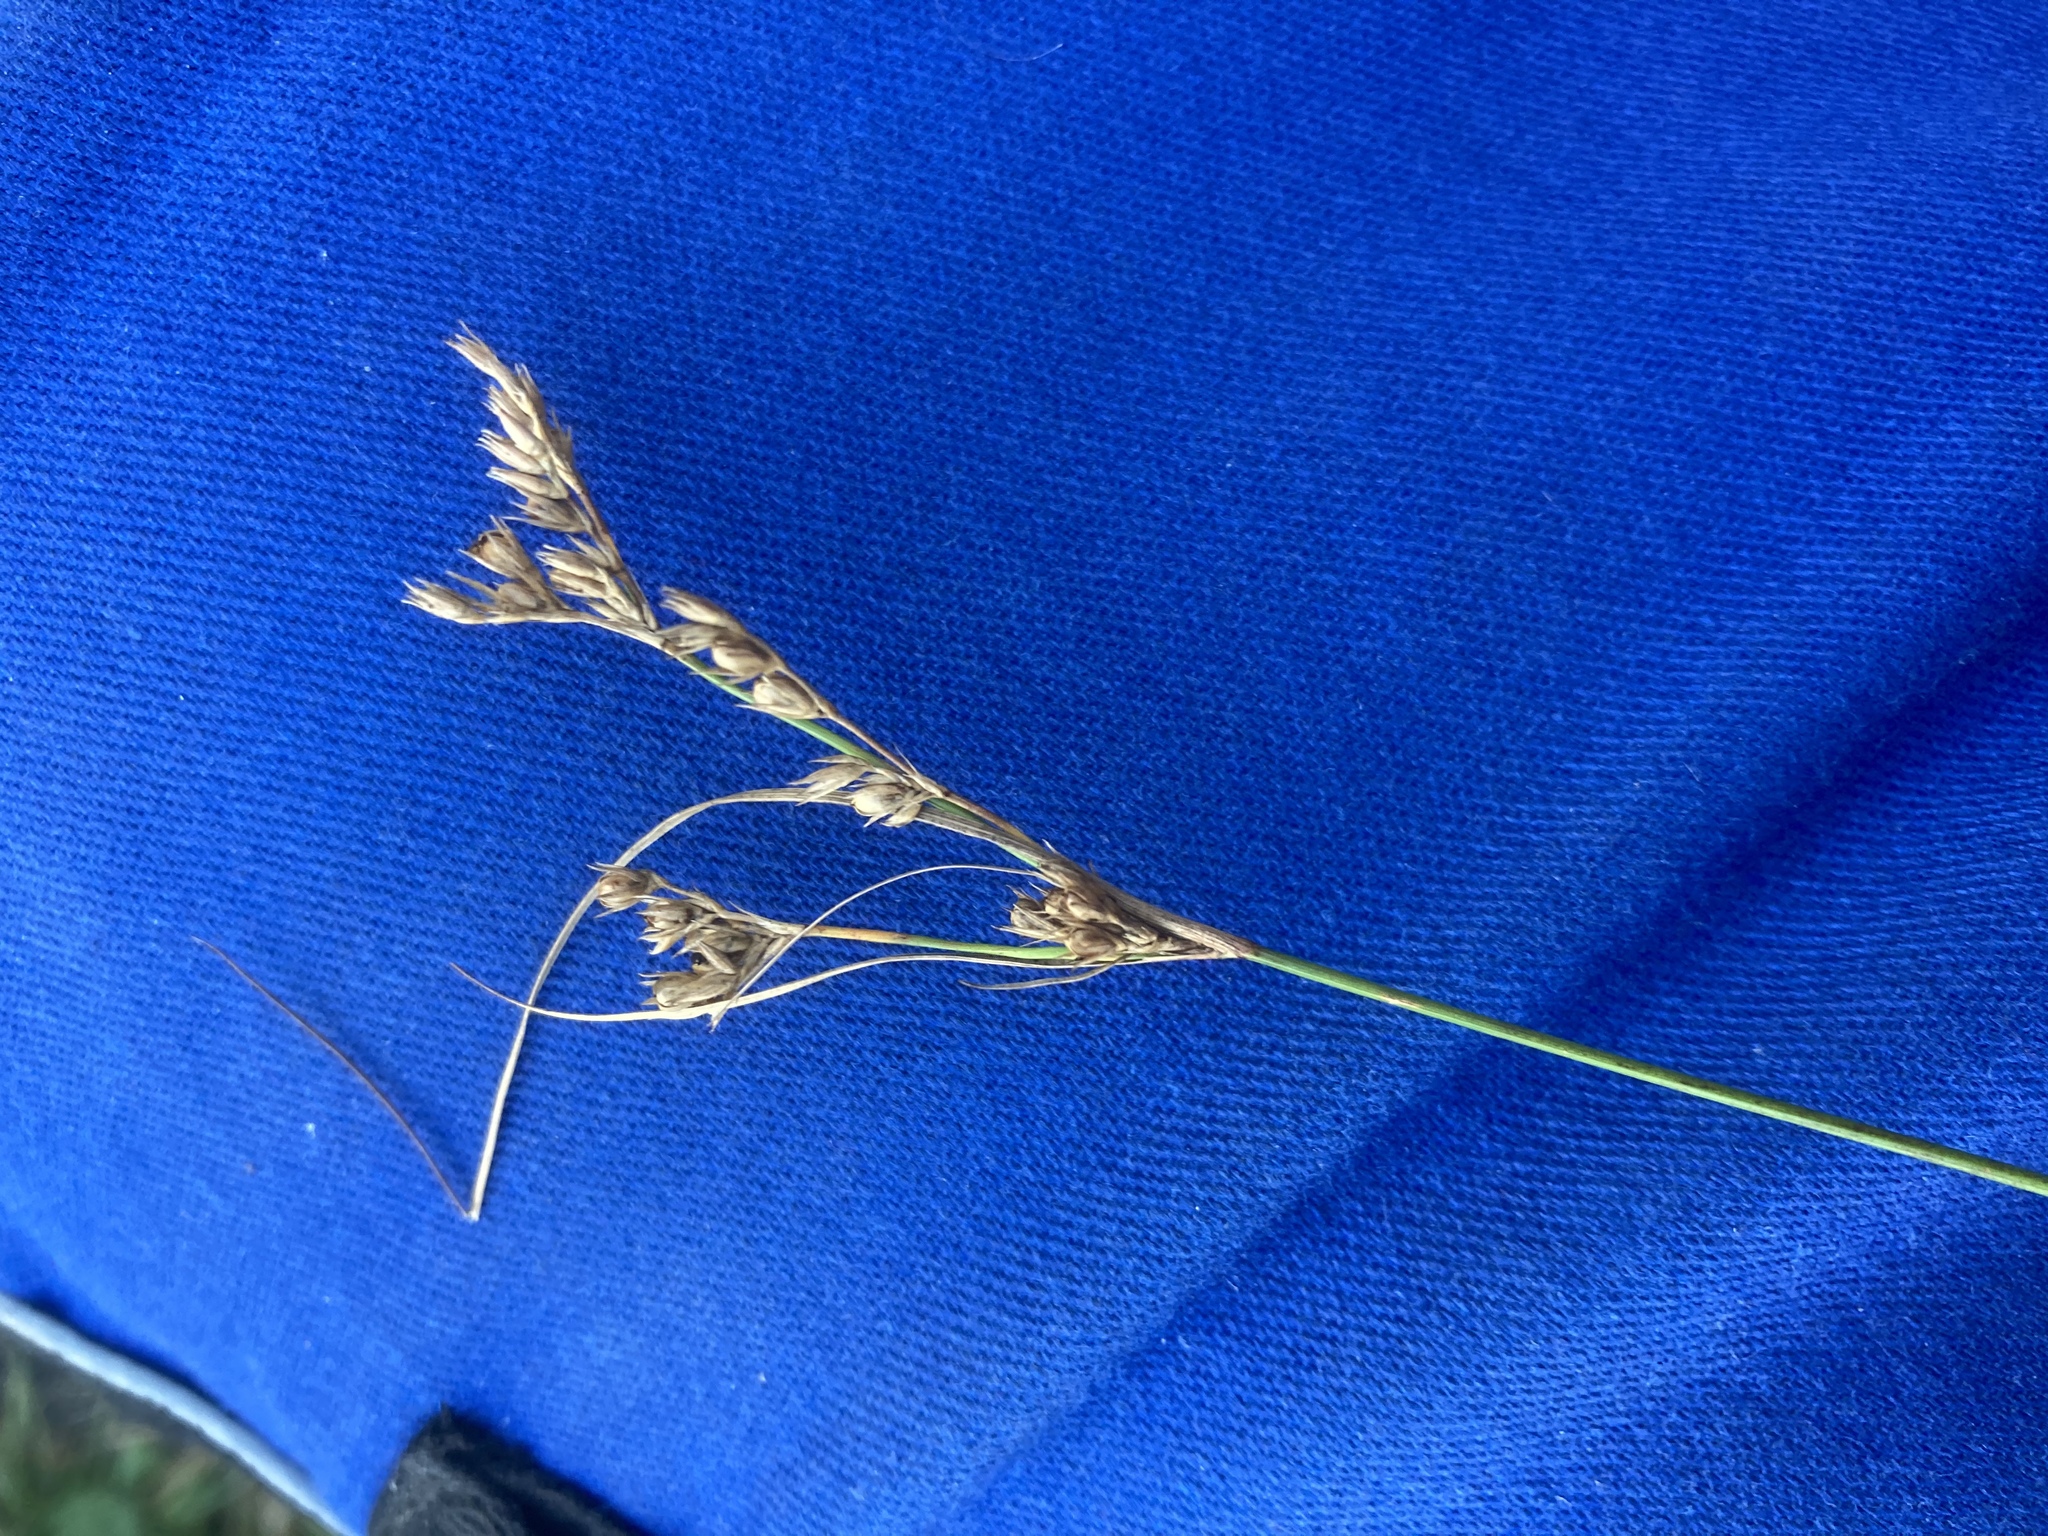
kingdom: Plantae
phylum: Tracheophyta
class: Liliopsida
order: Poales
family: Juncaceae
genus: Juncus
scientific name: Juncus tenuis
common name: Slender rush
